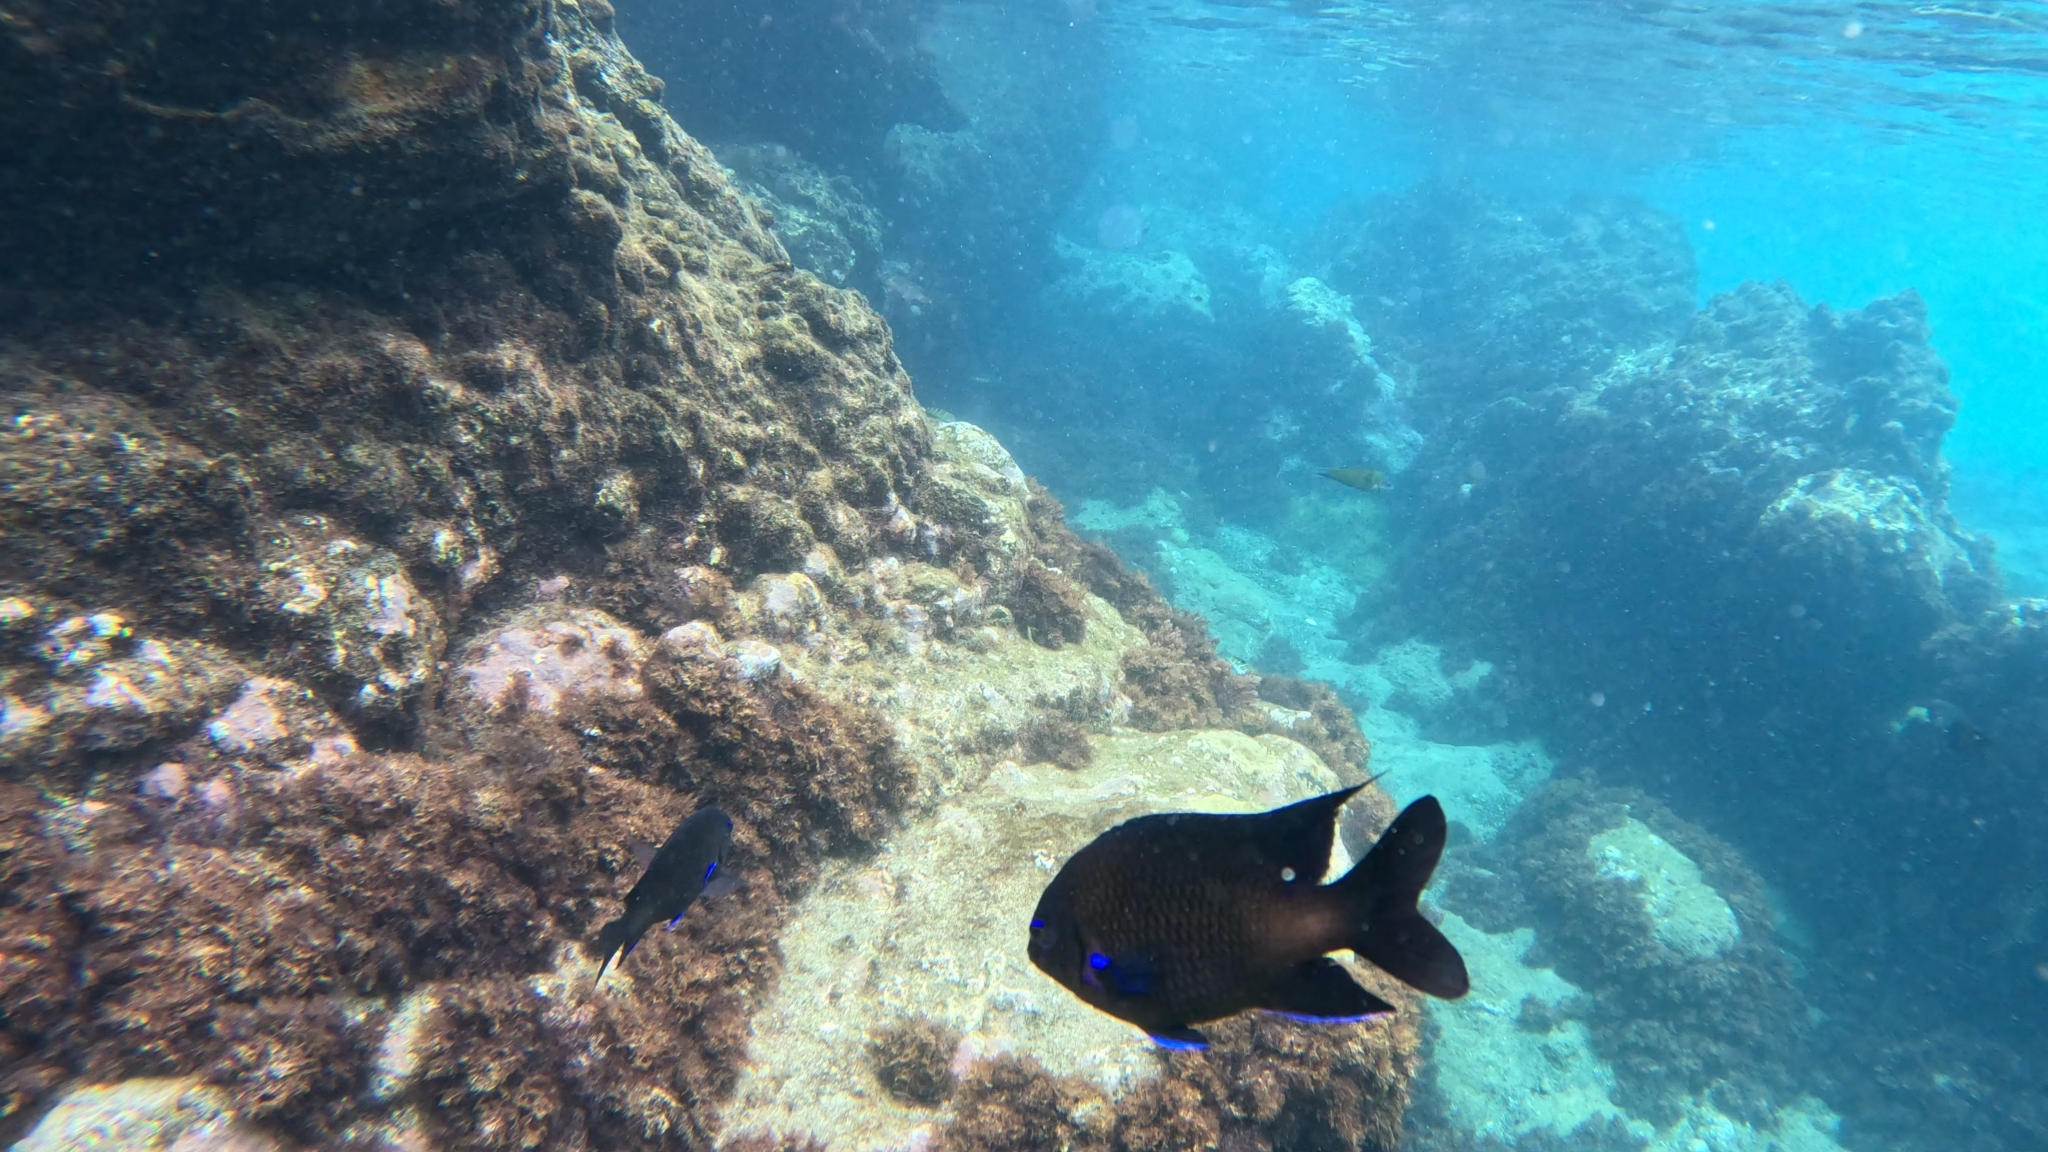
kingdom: Animalia
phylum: Chordata
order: Perciformes
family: Pomacentridae
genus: Similiparma
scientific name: Similiparma lurida
